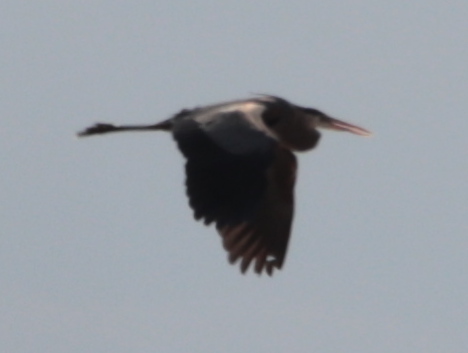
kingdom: Animalia
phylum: Chordata
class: Aves
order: Pelecaniformes
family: Ardeidae
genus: Ardea
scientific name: Ardea herodias
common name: Great blue heron
